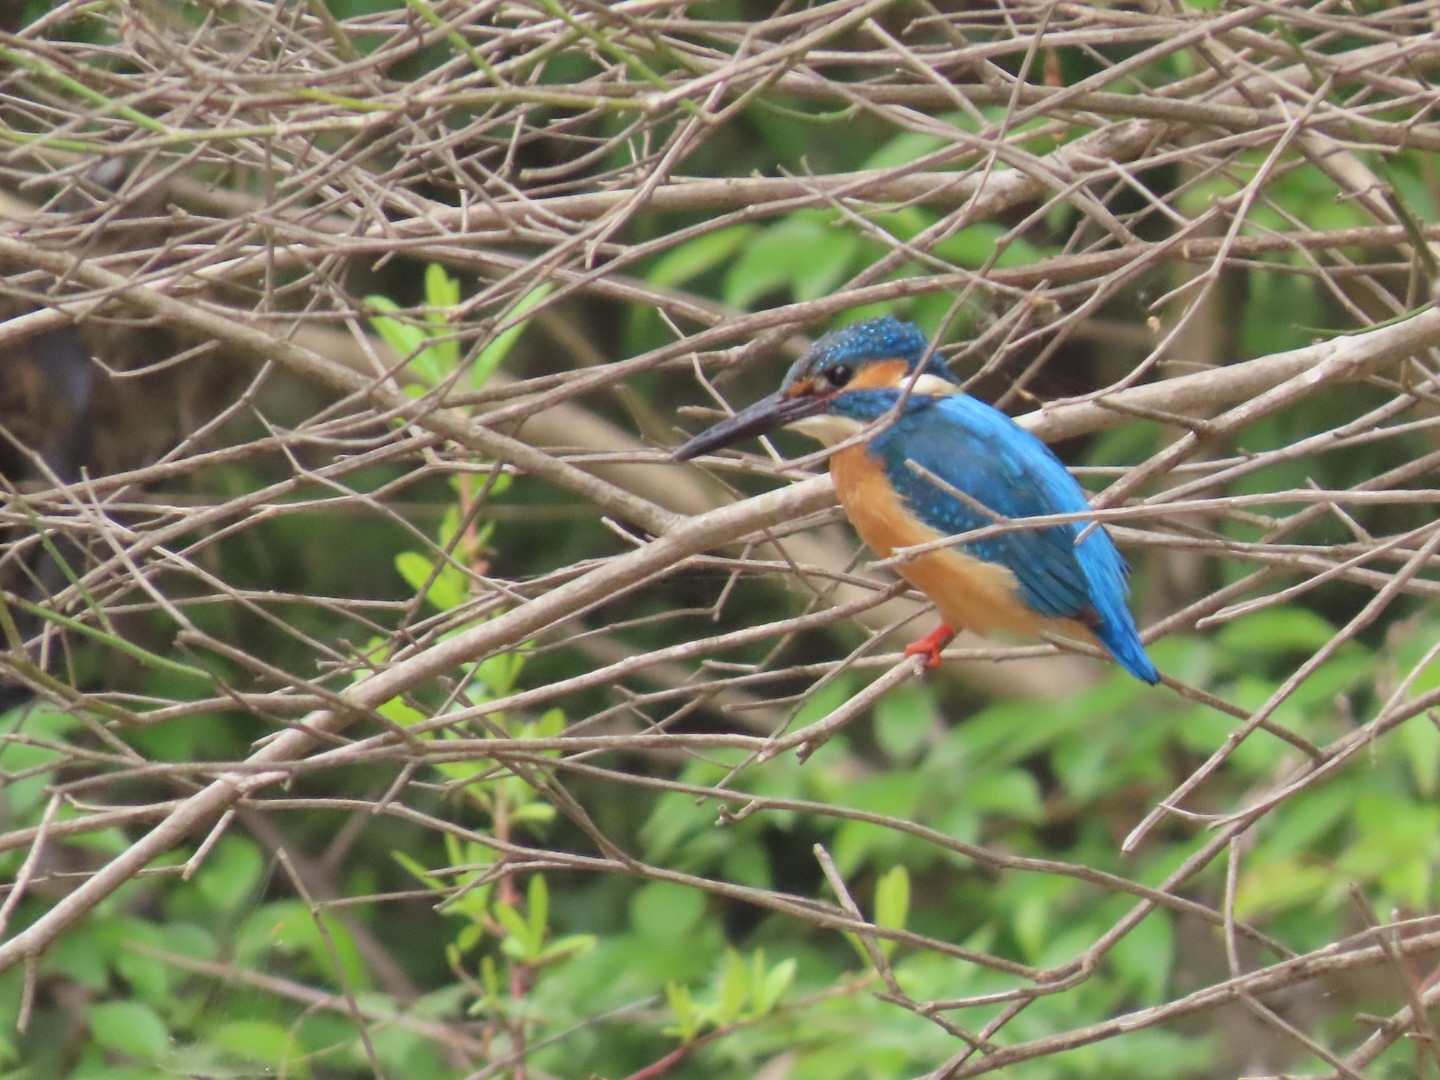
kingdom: Animalia
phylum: Chordata
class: Aves
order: Coraciiformes
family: Alcedinidae
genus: Alcedo
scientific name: Alcedo atthis
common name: Common kingfisher
